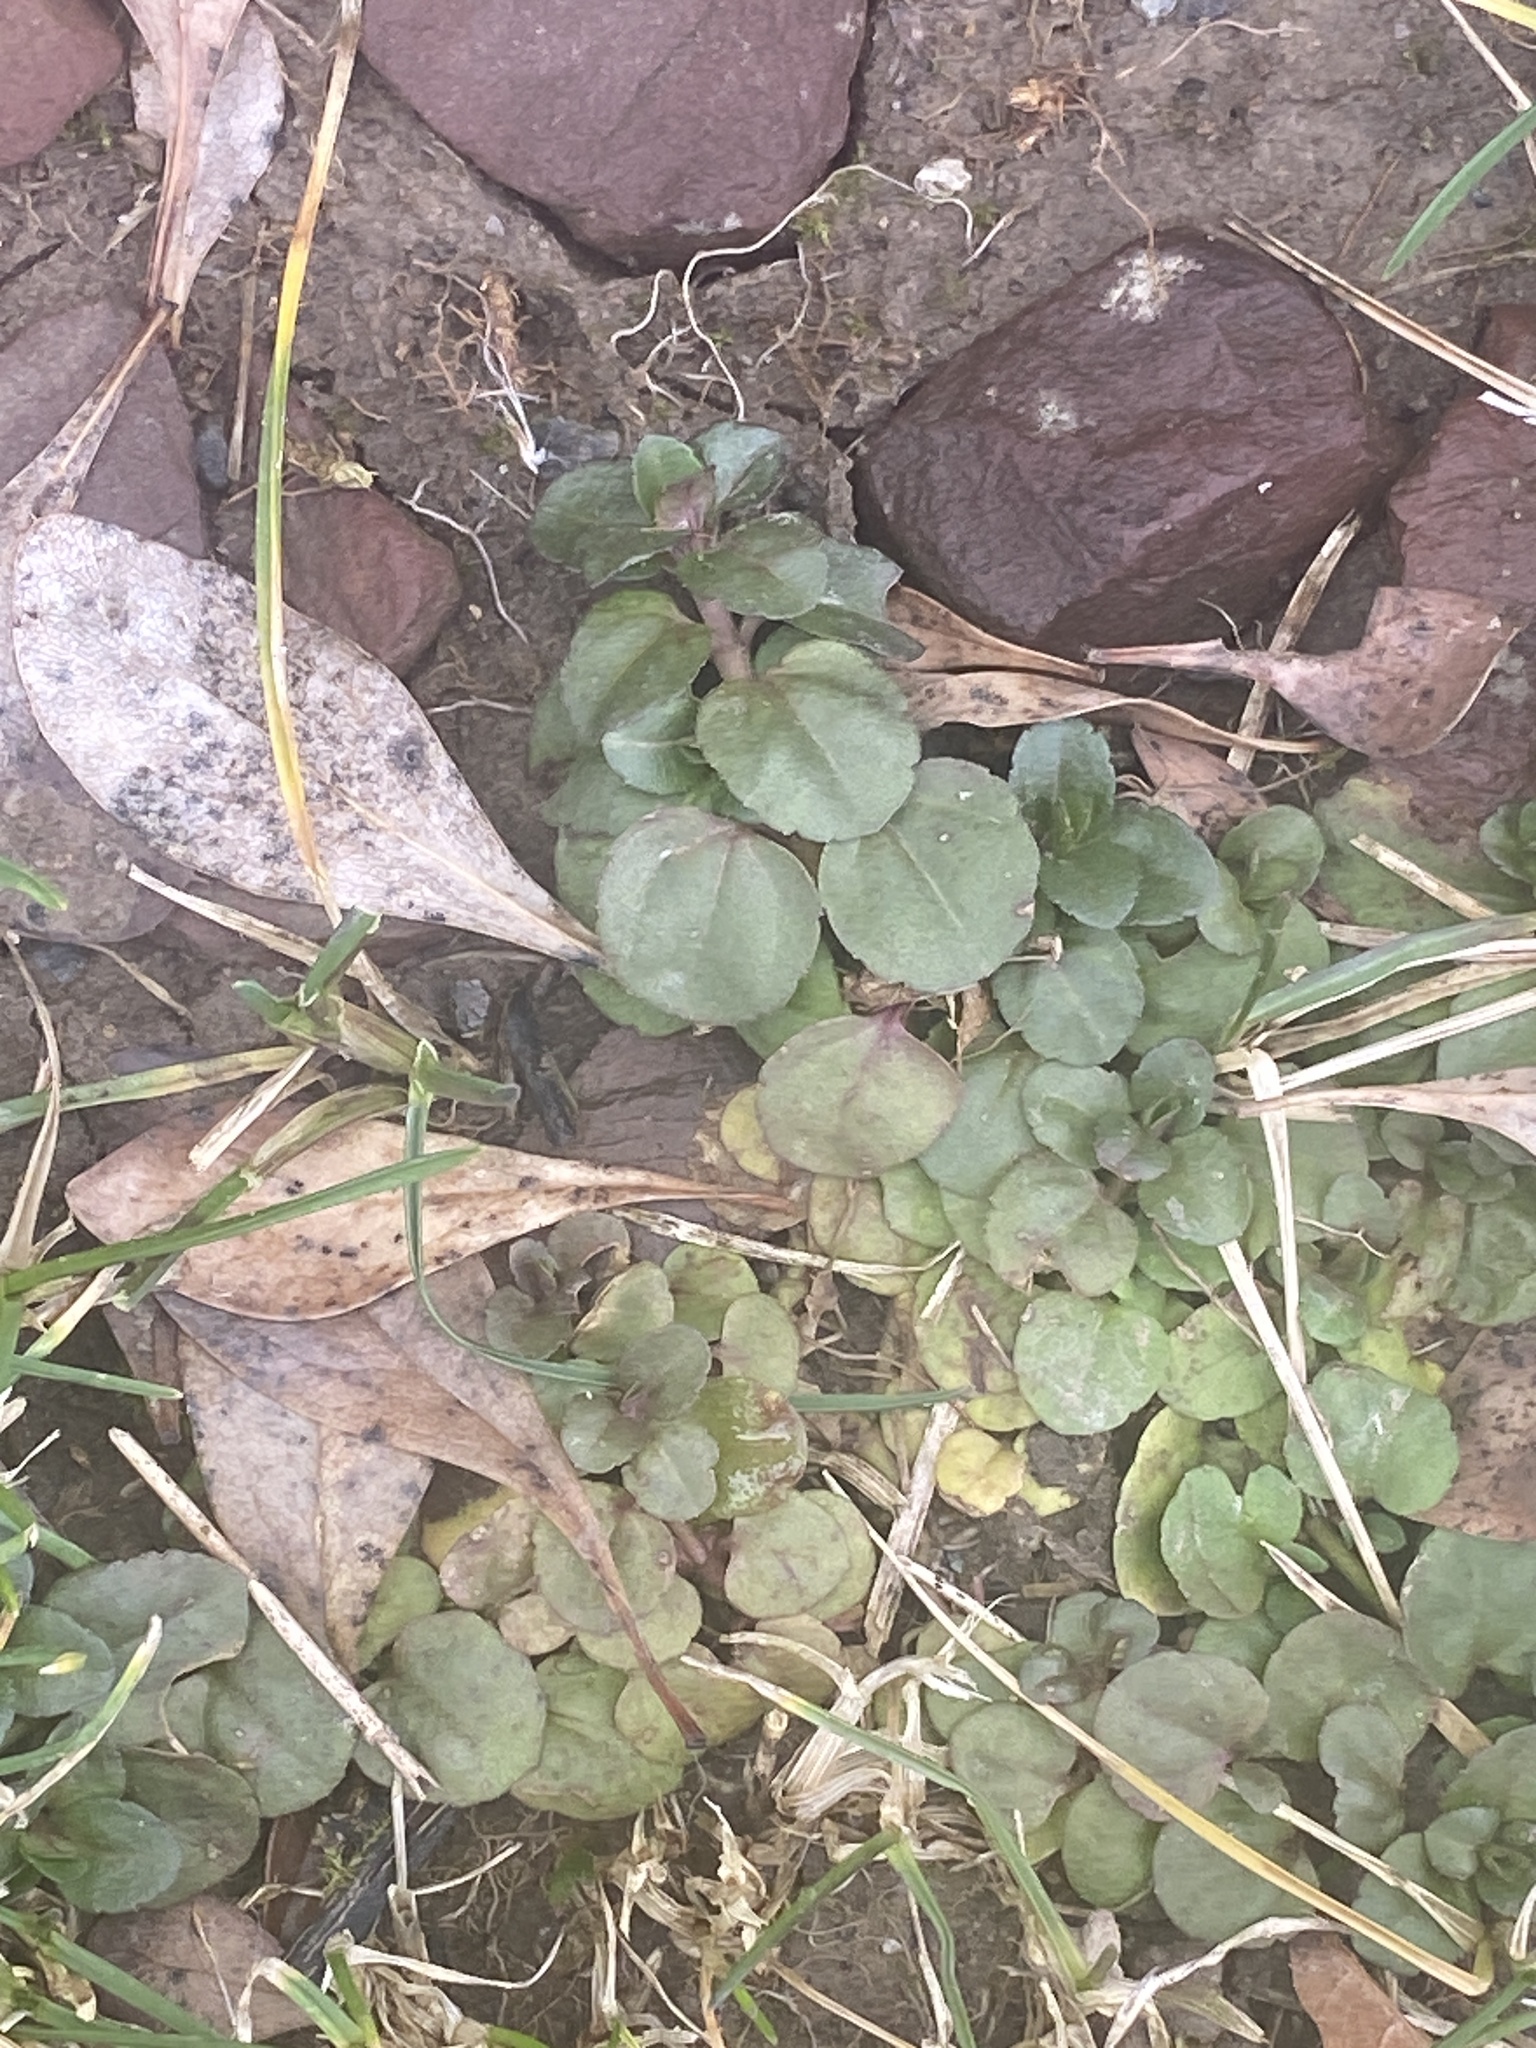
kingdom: Plantae
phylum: Tracheophyta
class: Magnoliopsida
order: Lamiales
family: Plantaginaceae
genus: Veronica
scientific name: Veronica serpyllifolia
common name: Thyme-leaved speedwell
